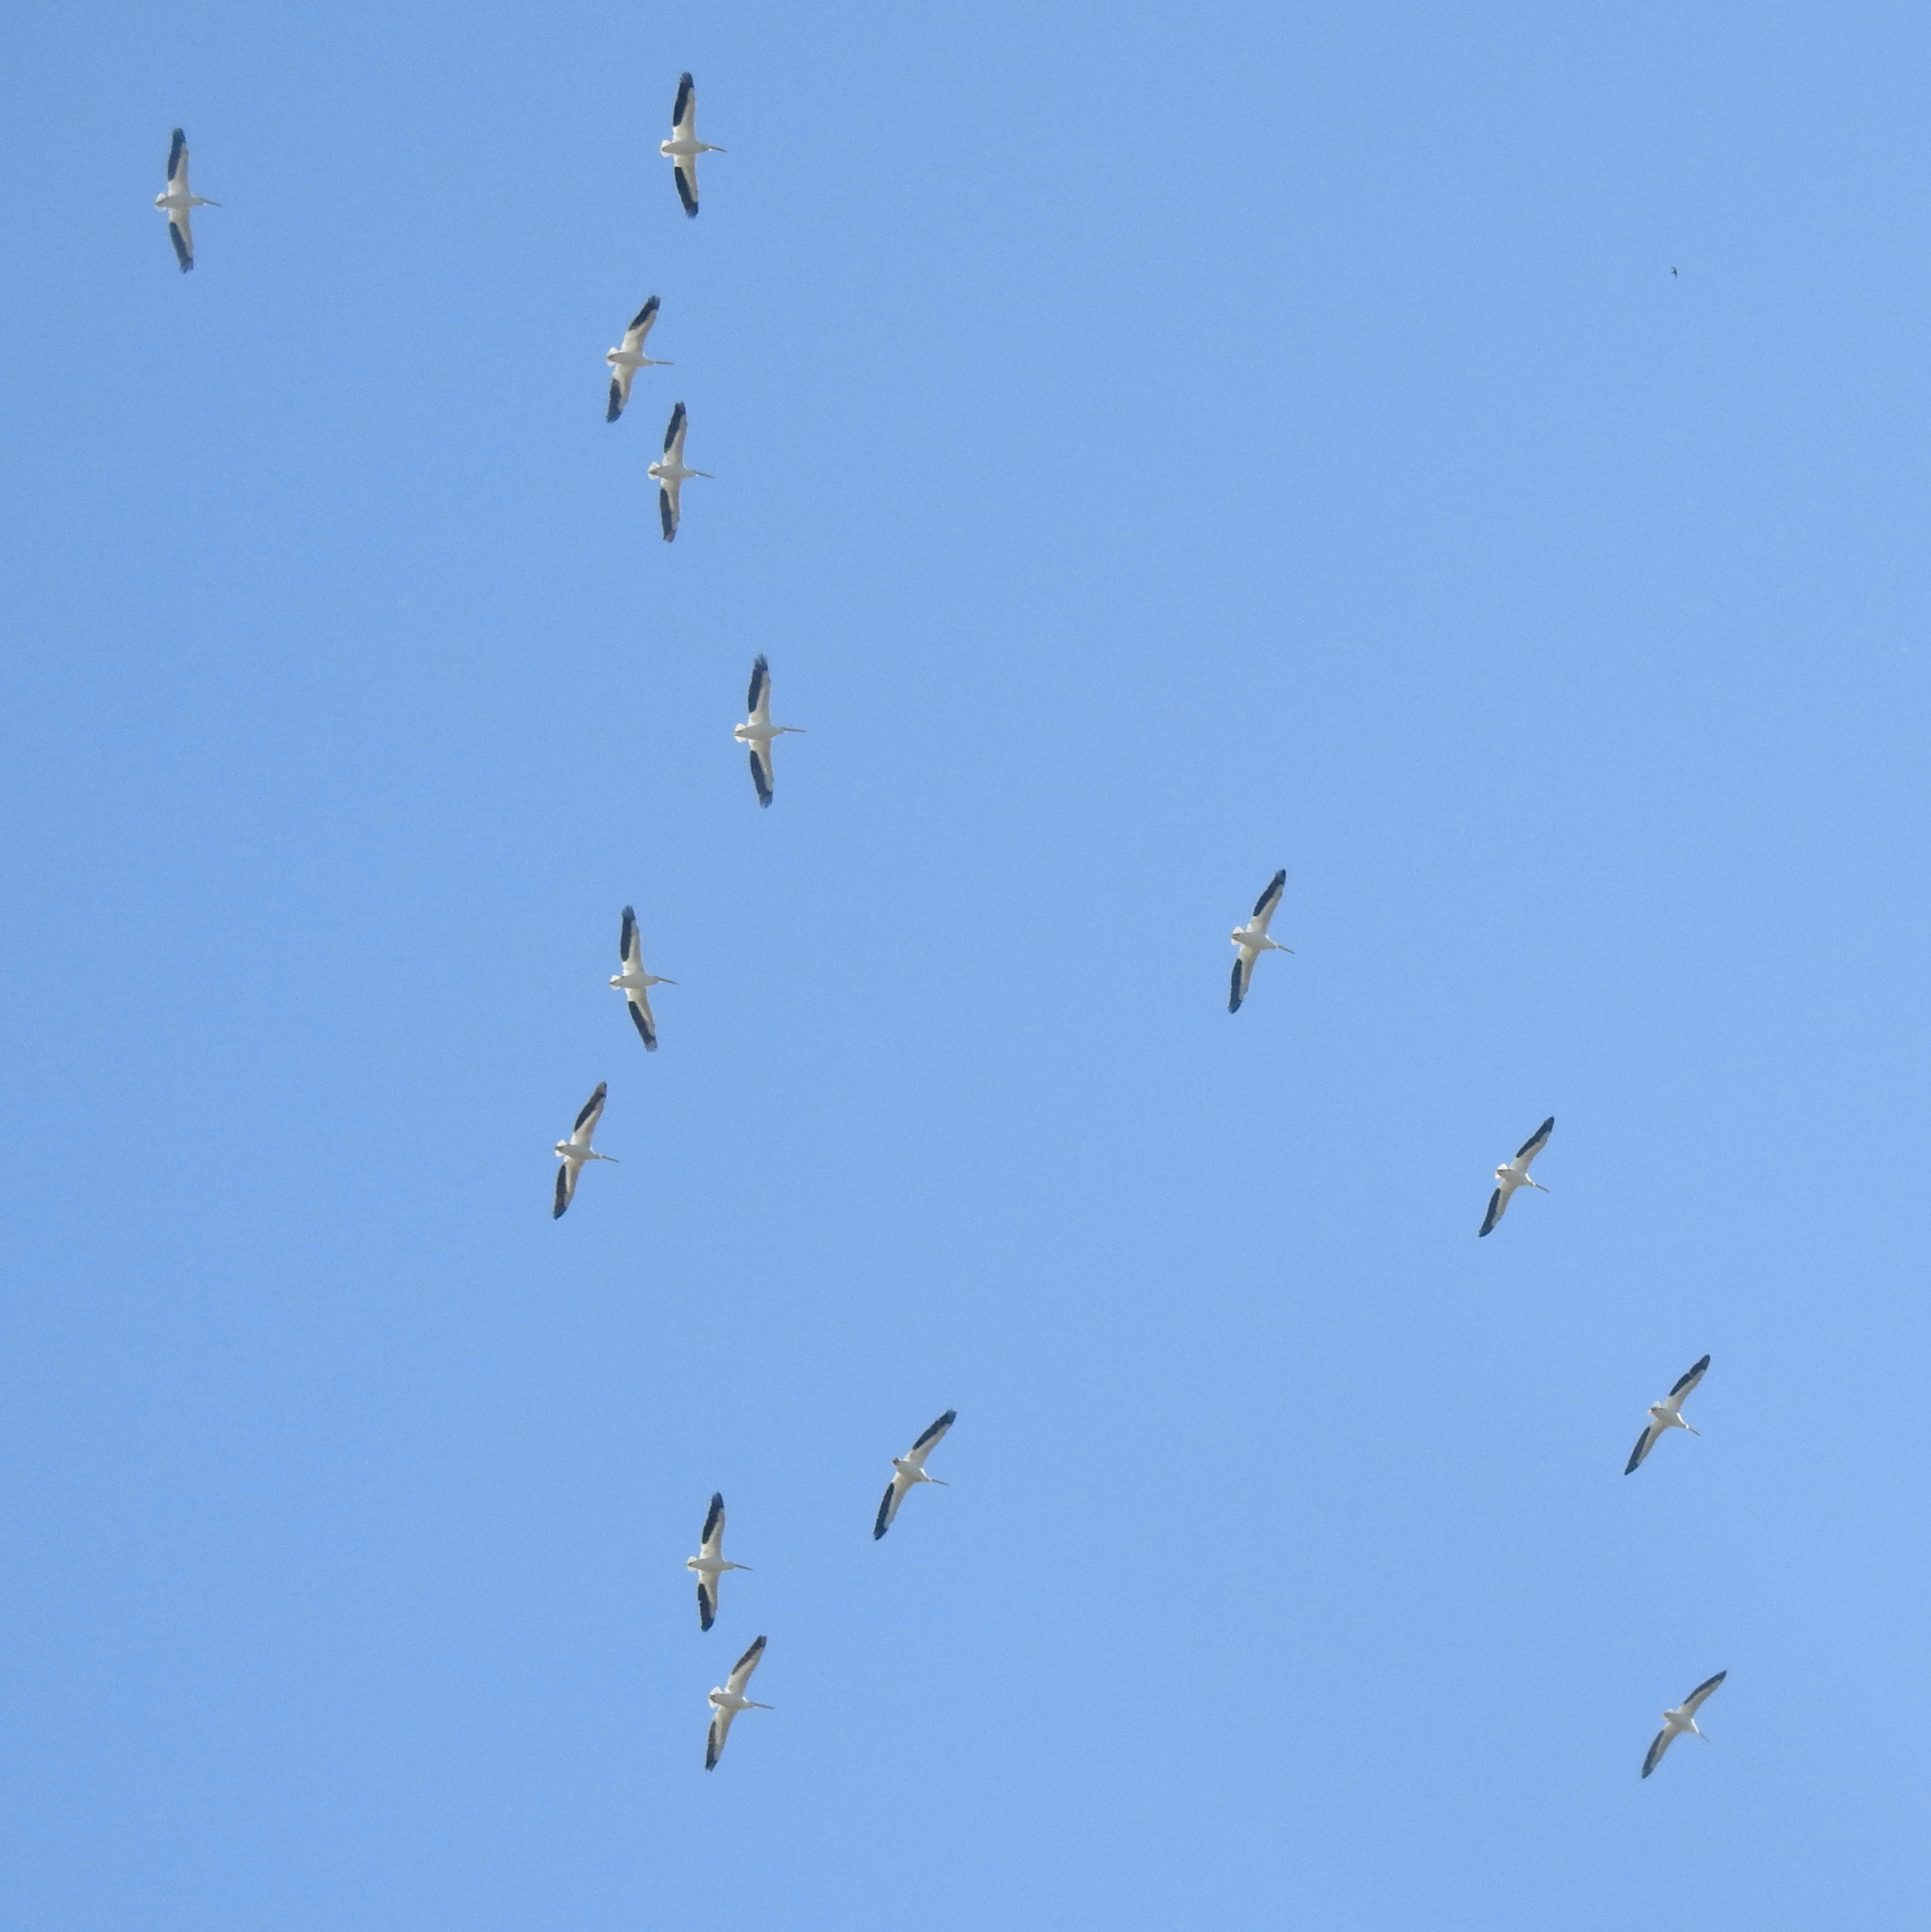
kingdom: Animalia
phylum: Chordata
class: Aves
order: Pelecaniformes
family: Pelecanidae
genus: Pelecanus
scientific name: Pelecanus erythrorhynchos
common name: American white pelican
